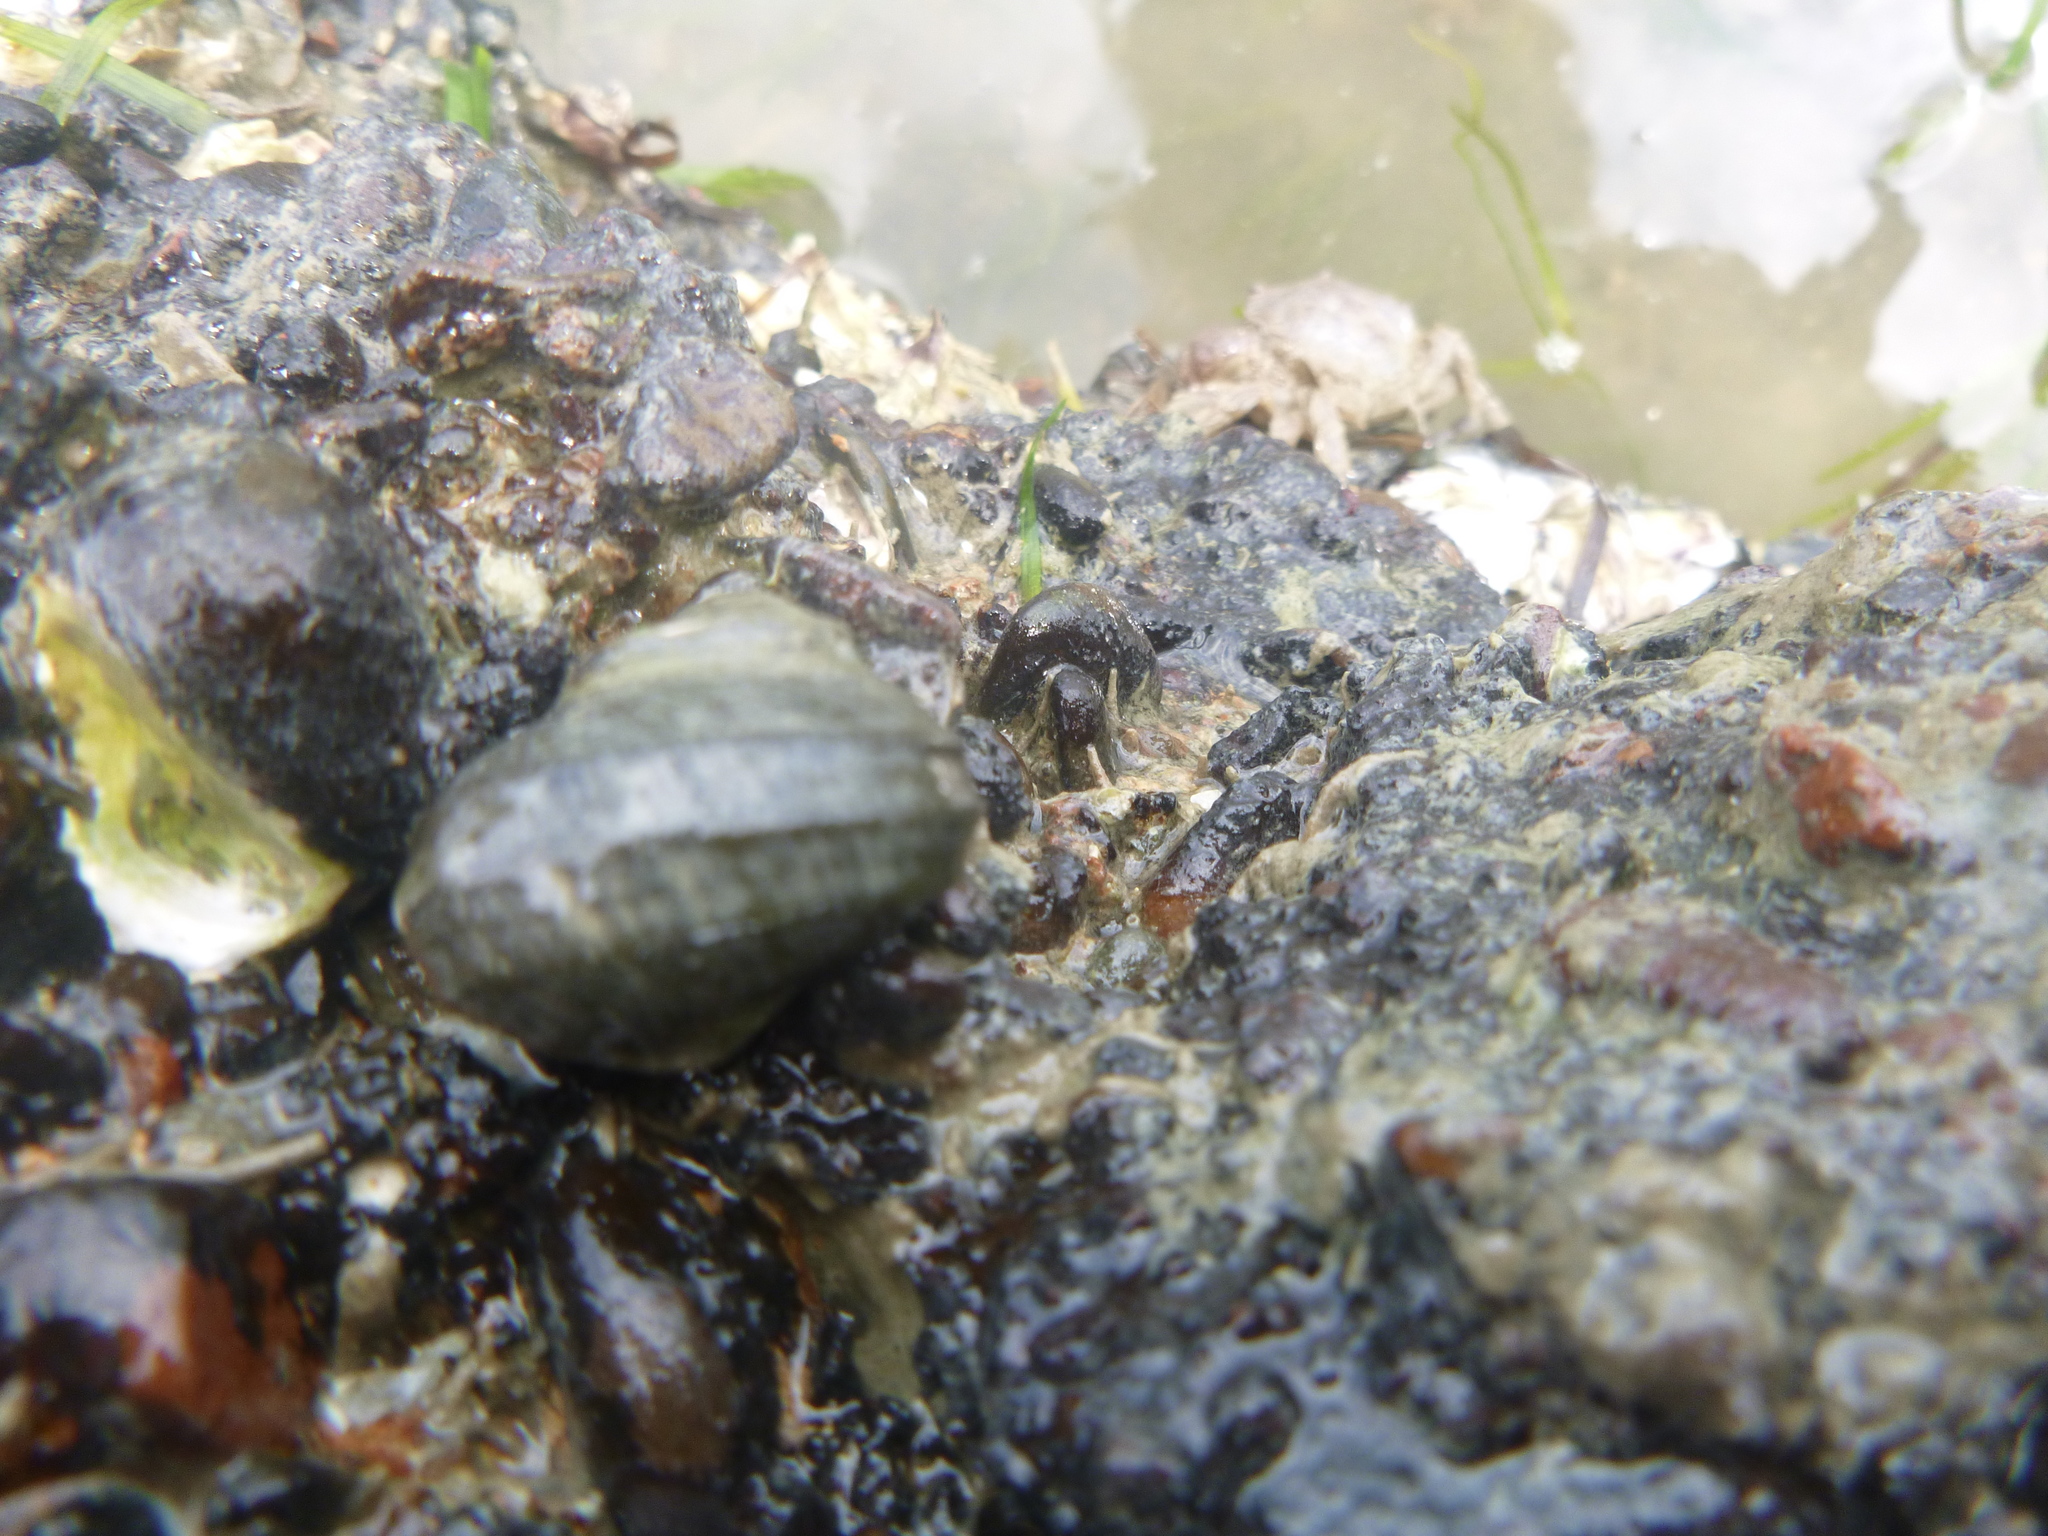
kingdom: Animalia
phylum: Mollusca
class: Gastropoda
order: Trochida
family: Turbinidae
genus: Lunella
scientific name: Lunella smaragda
